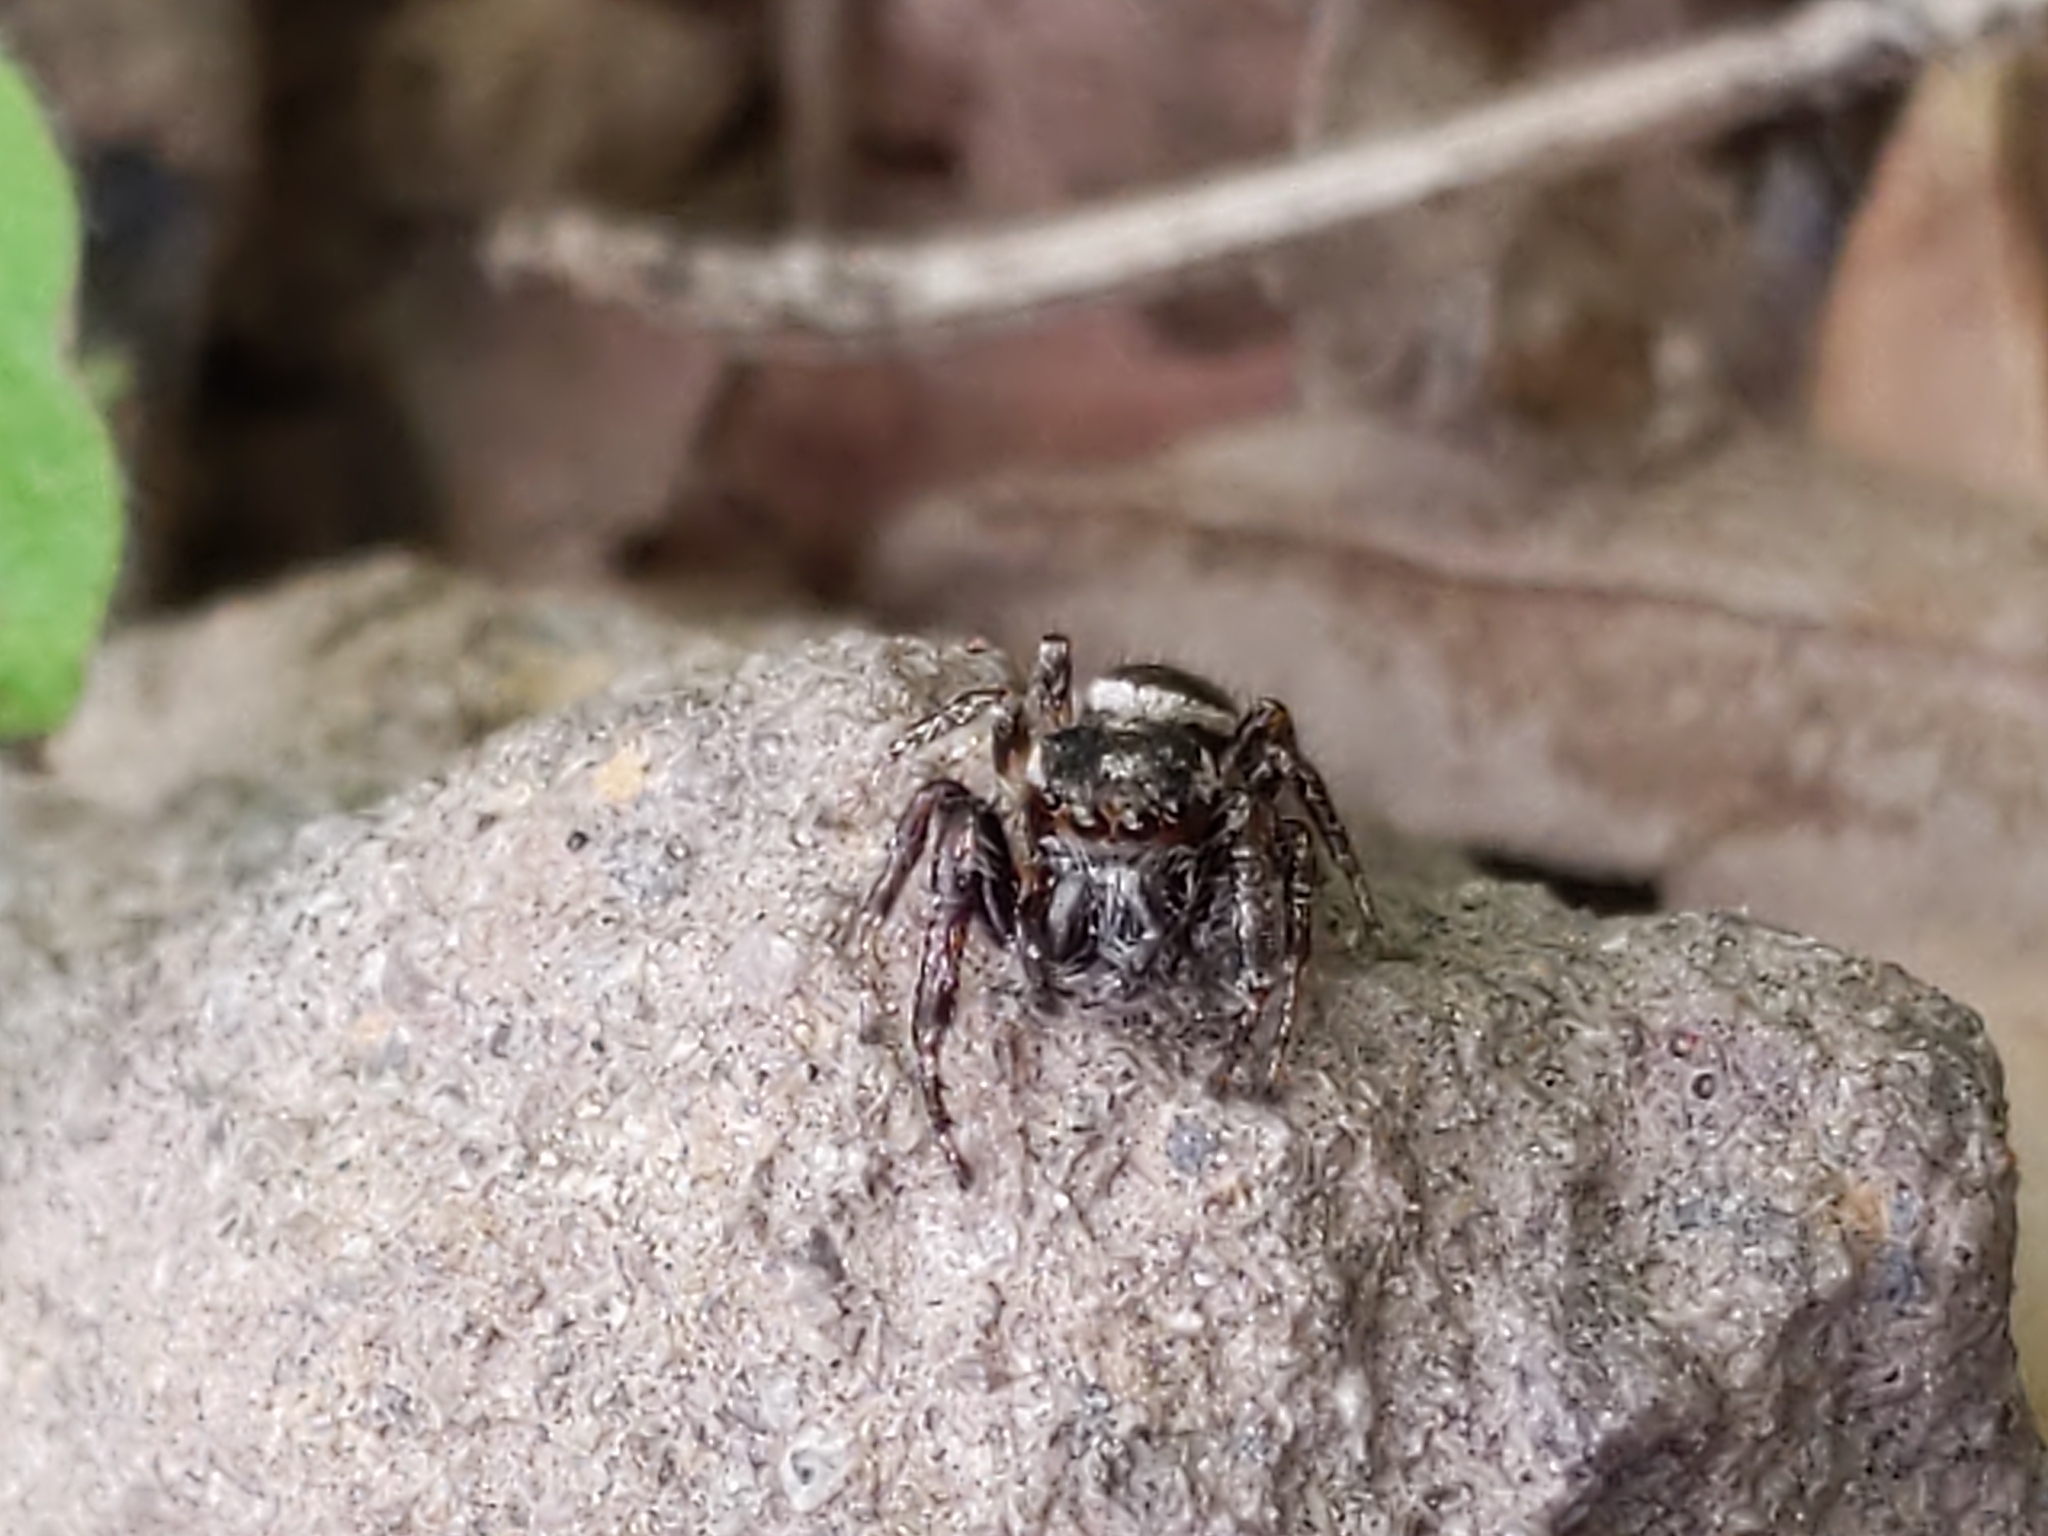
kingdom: Animalia
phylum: Arthropoda
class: Arachnida
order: Araneae
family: Salticidae
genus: Eris
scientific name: Eris militaris
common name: Bronze jumper
